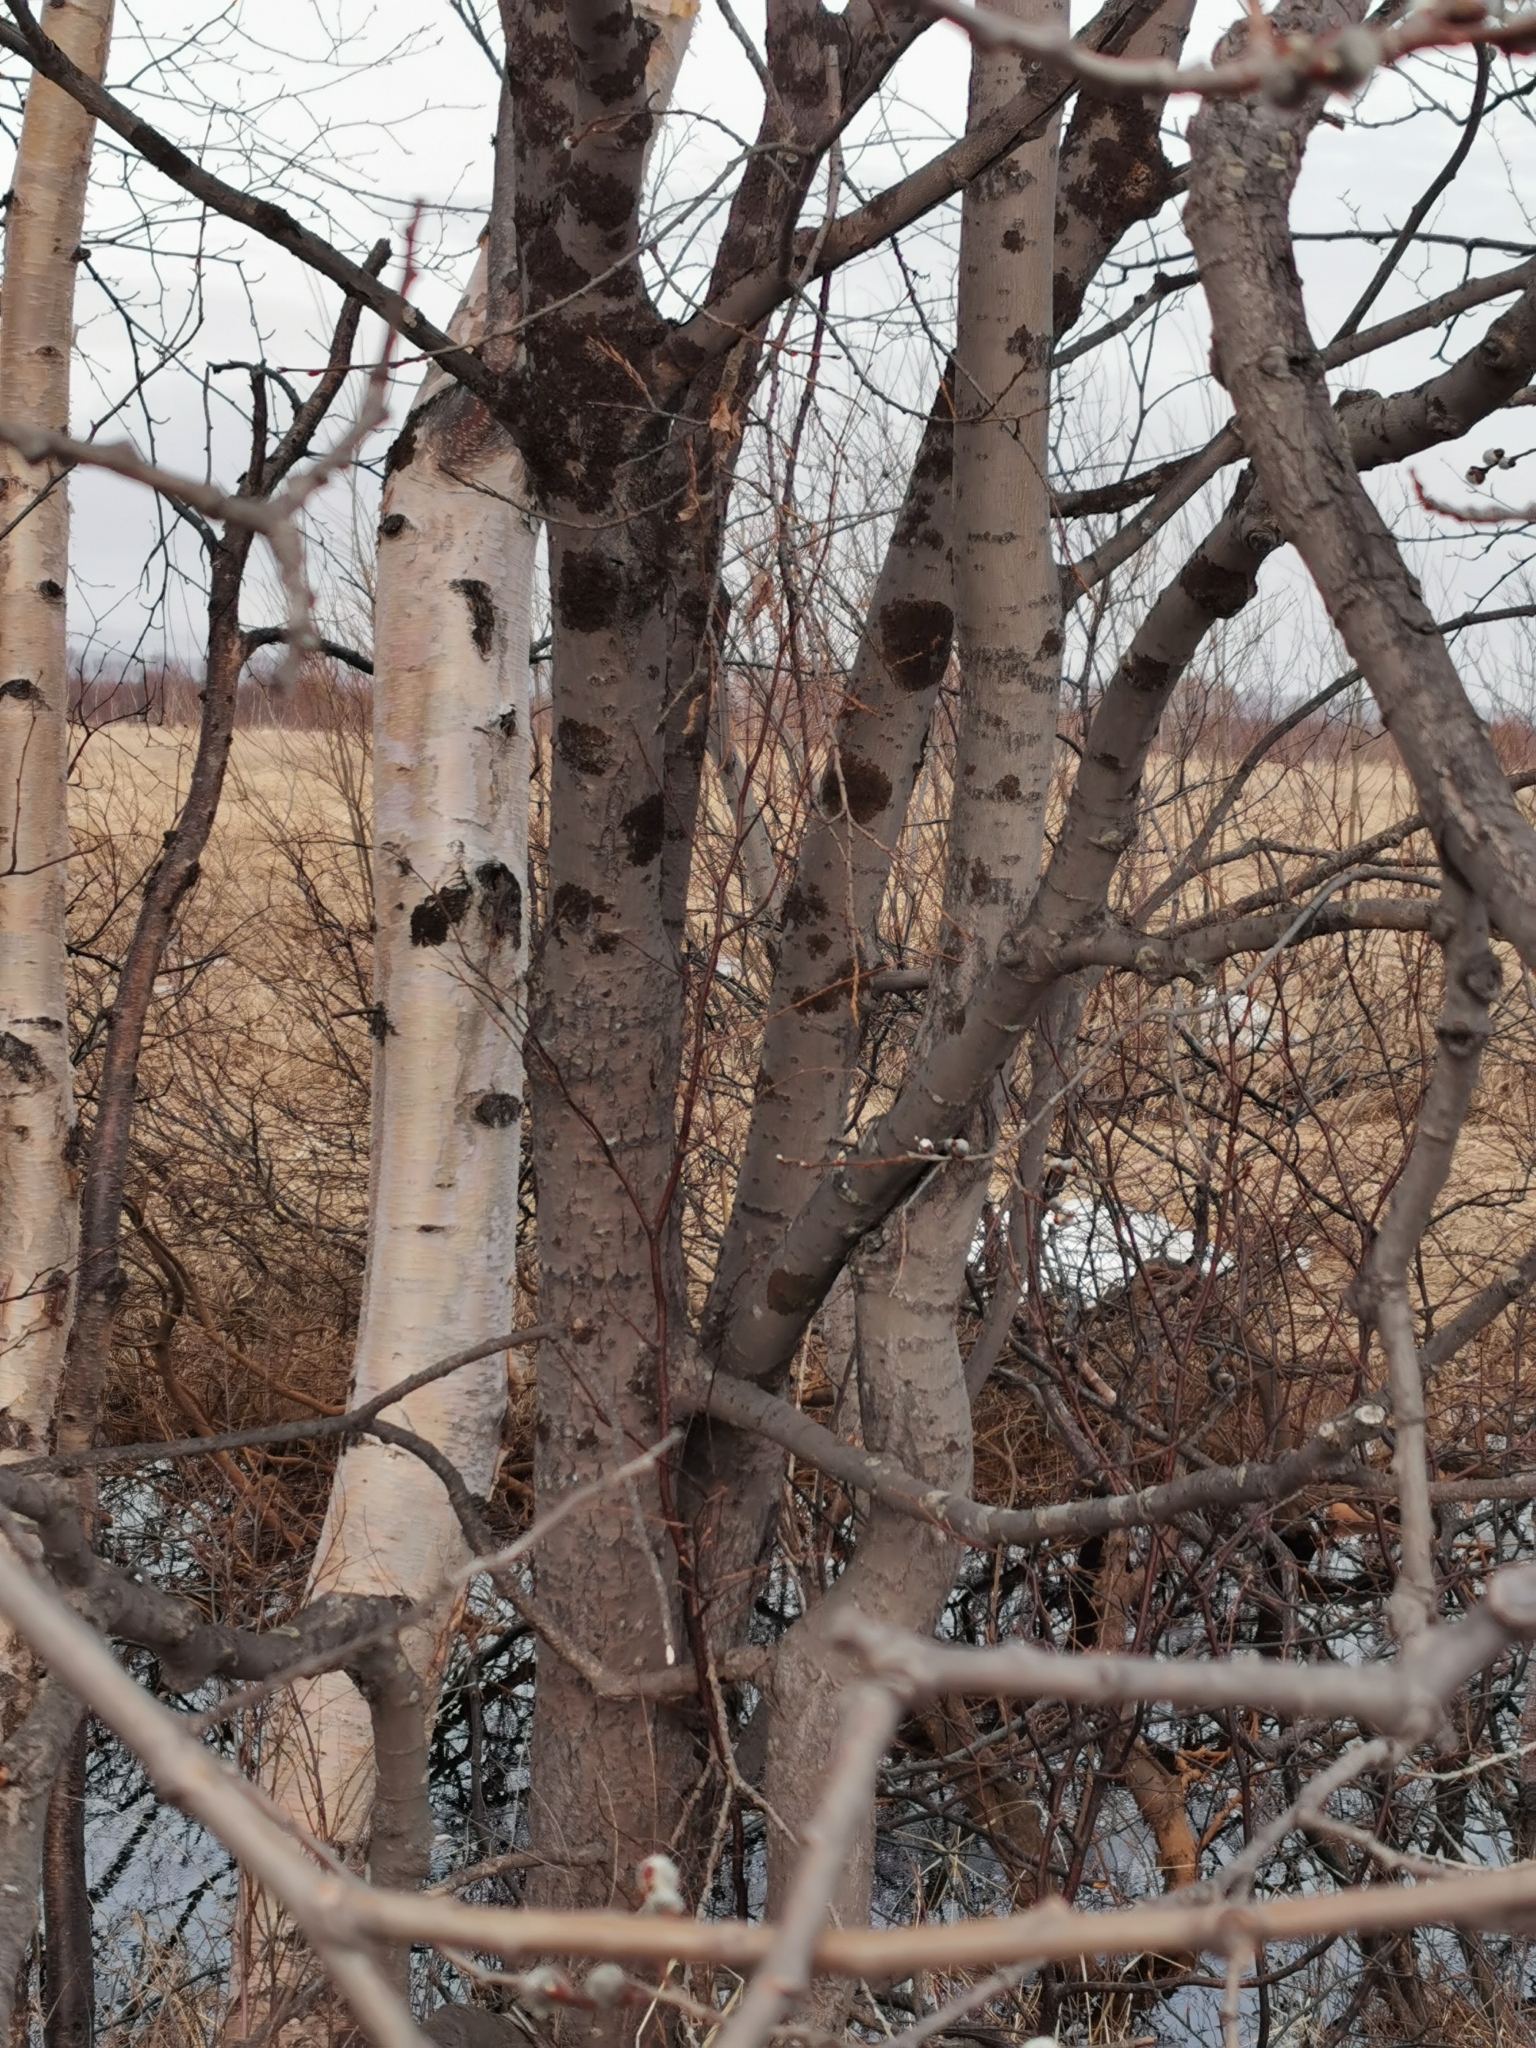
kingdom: Plantae
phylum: Tracheophyta
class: Magnoliopsida
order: Malpighiales
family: Salicaceae
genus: Salix
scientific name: Salix caprea
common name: Goat willow
